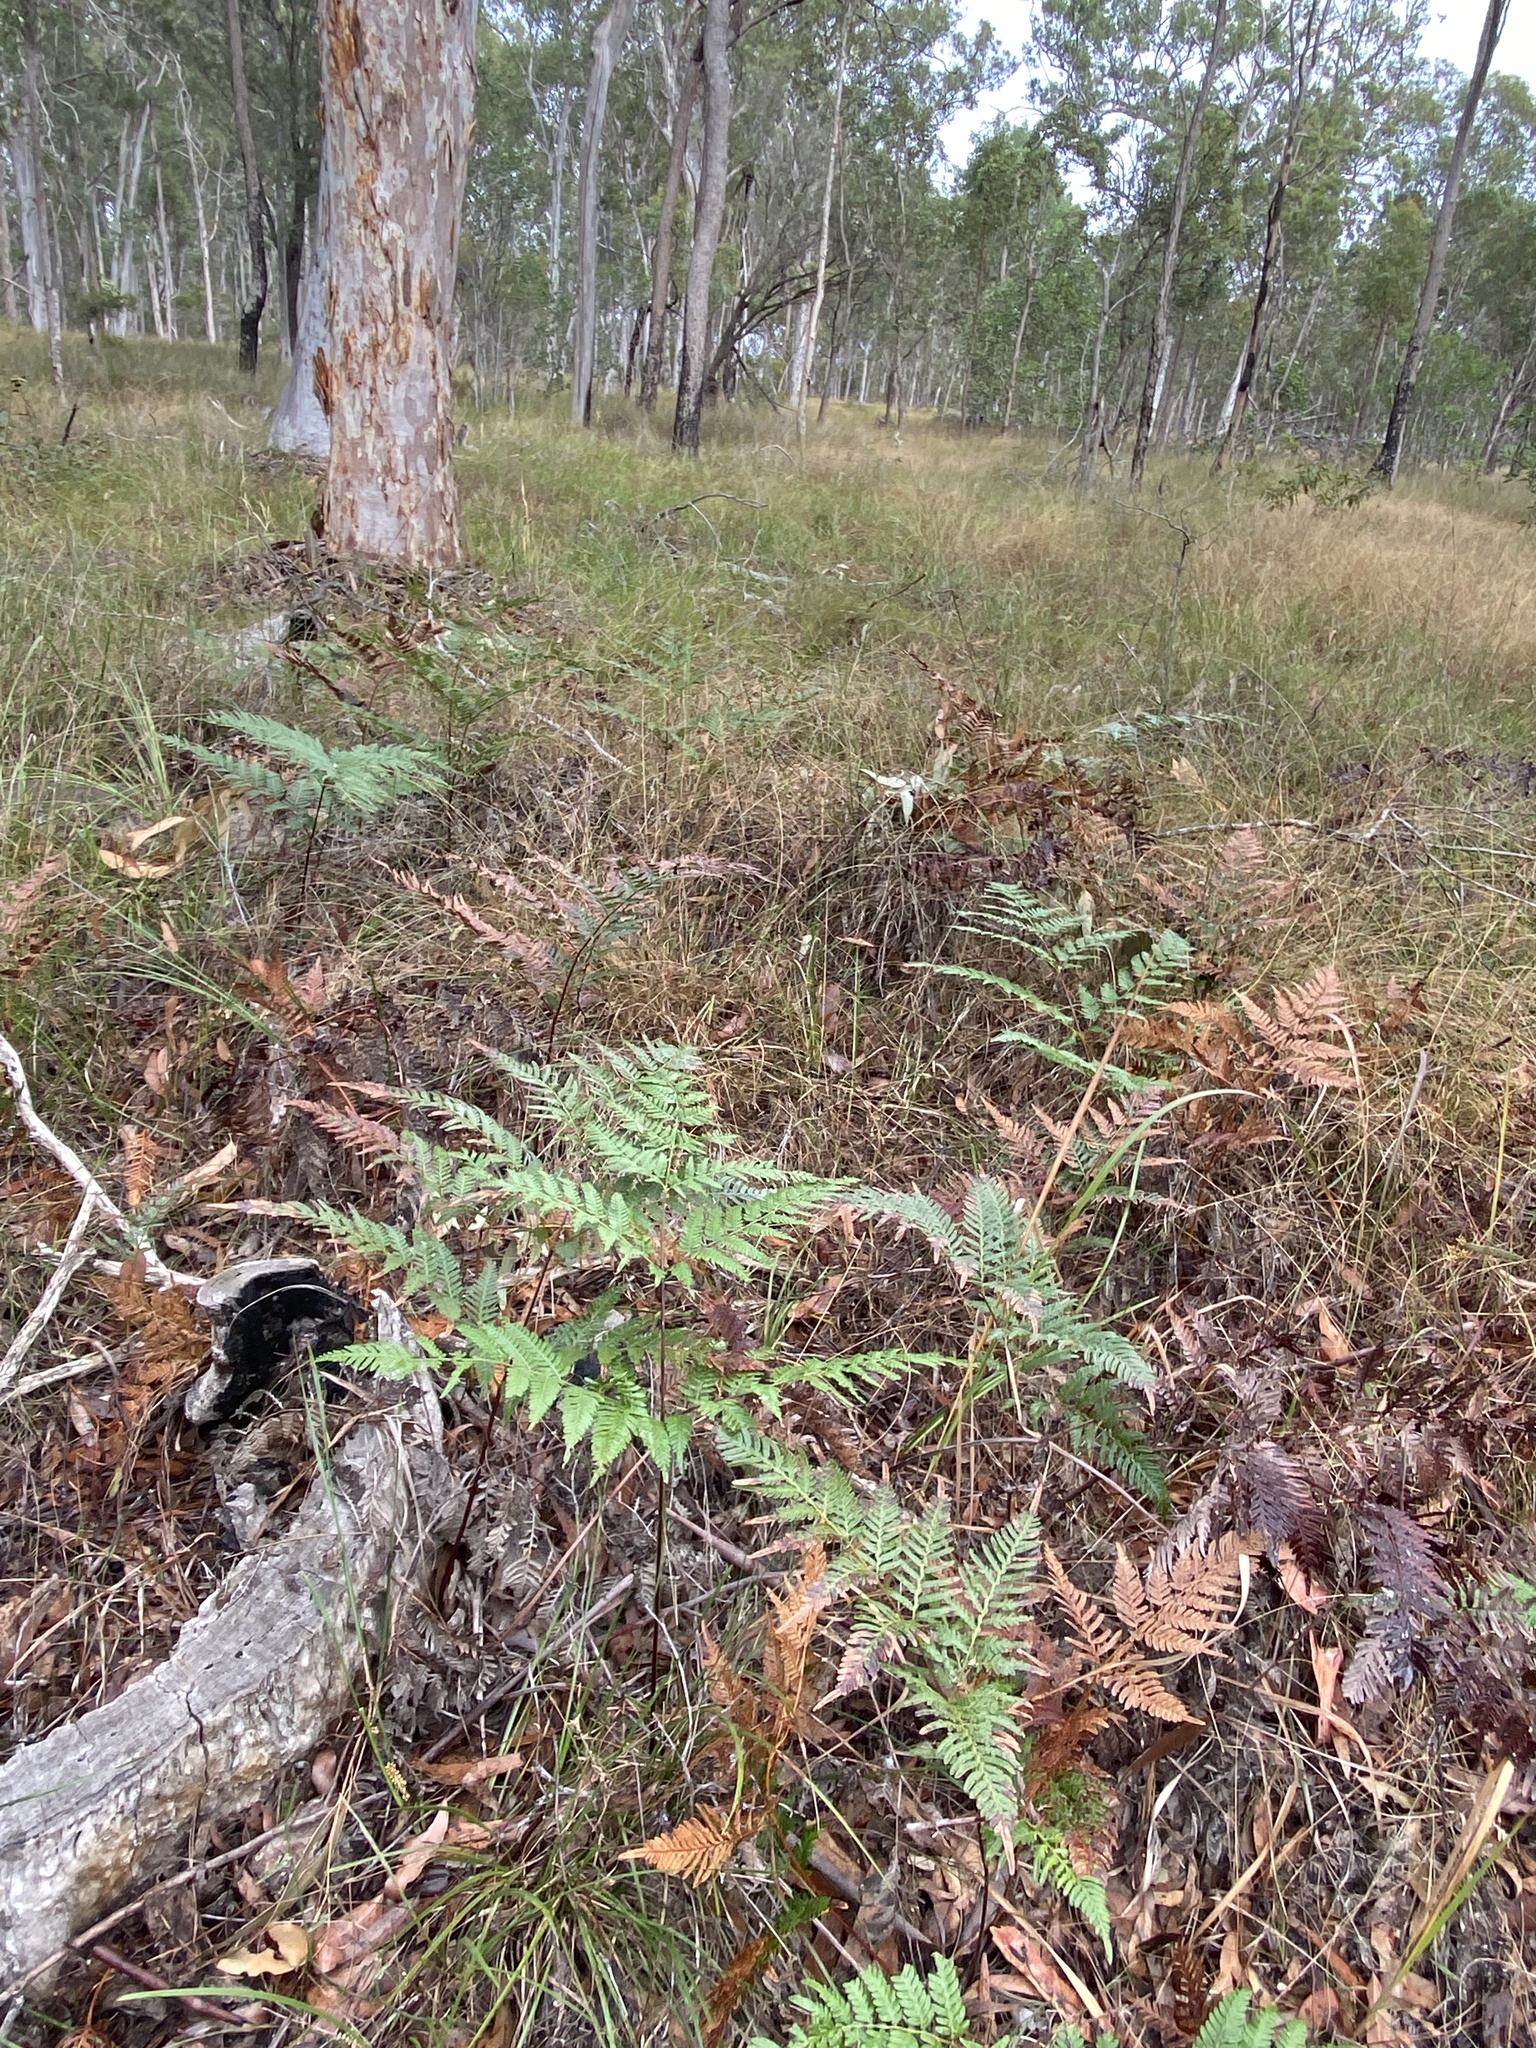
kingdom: Plantae
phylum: Tracheophyta
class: Polypodiopsida
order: Polypodiales
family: Dennstaedtiaceae
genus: Pteridium
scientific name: Pteridium esculentum
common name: Bracken fern
